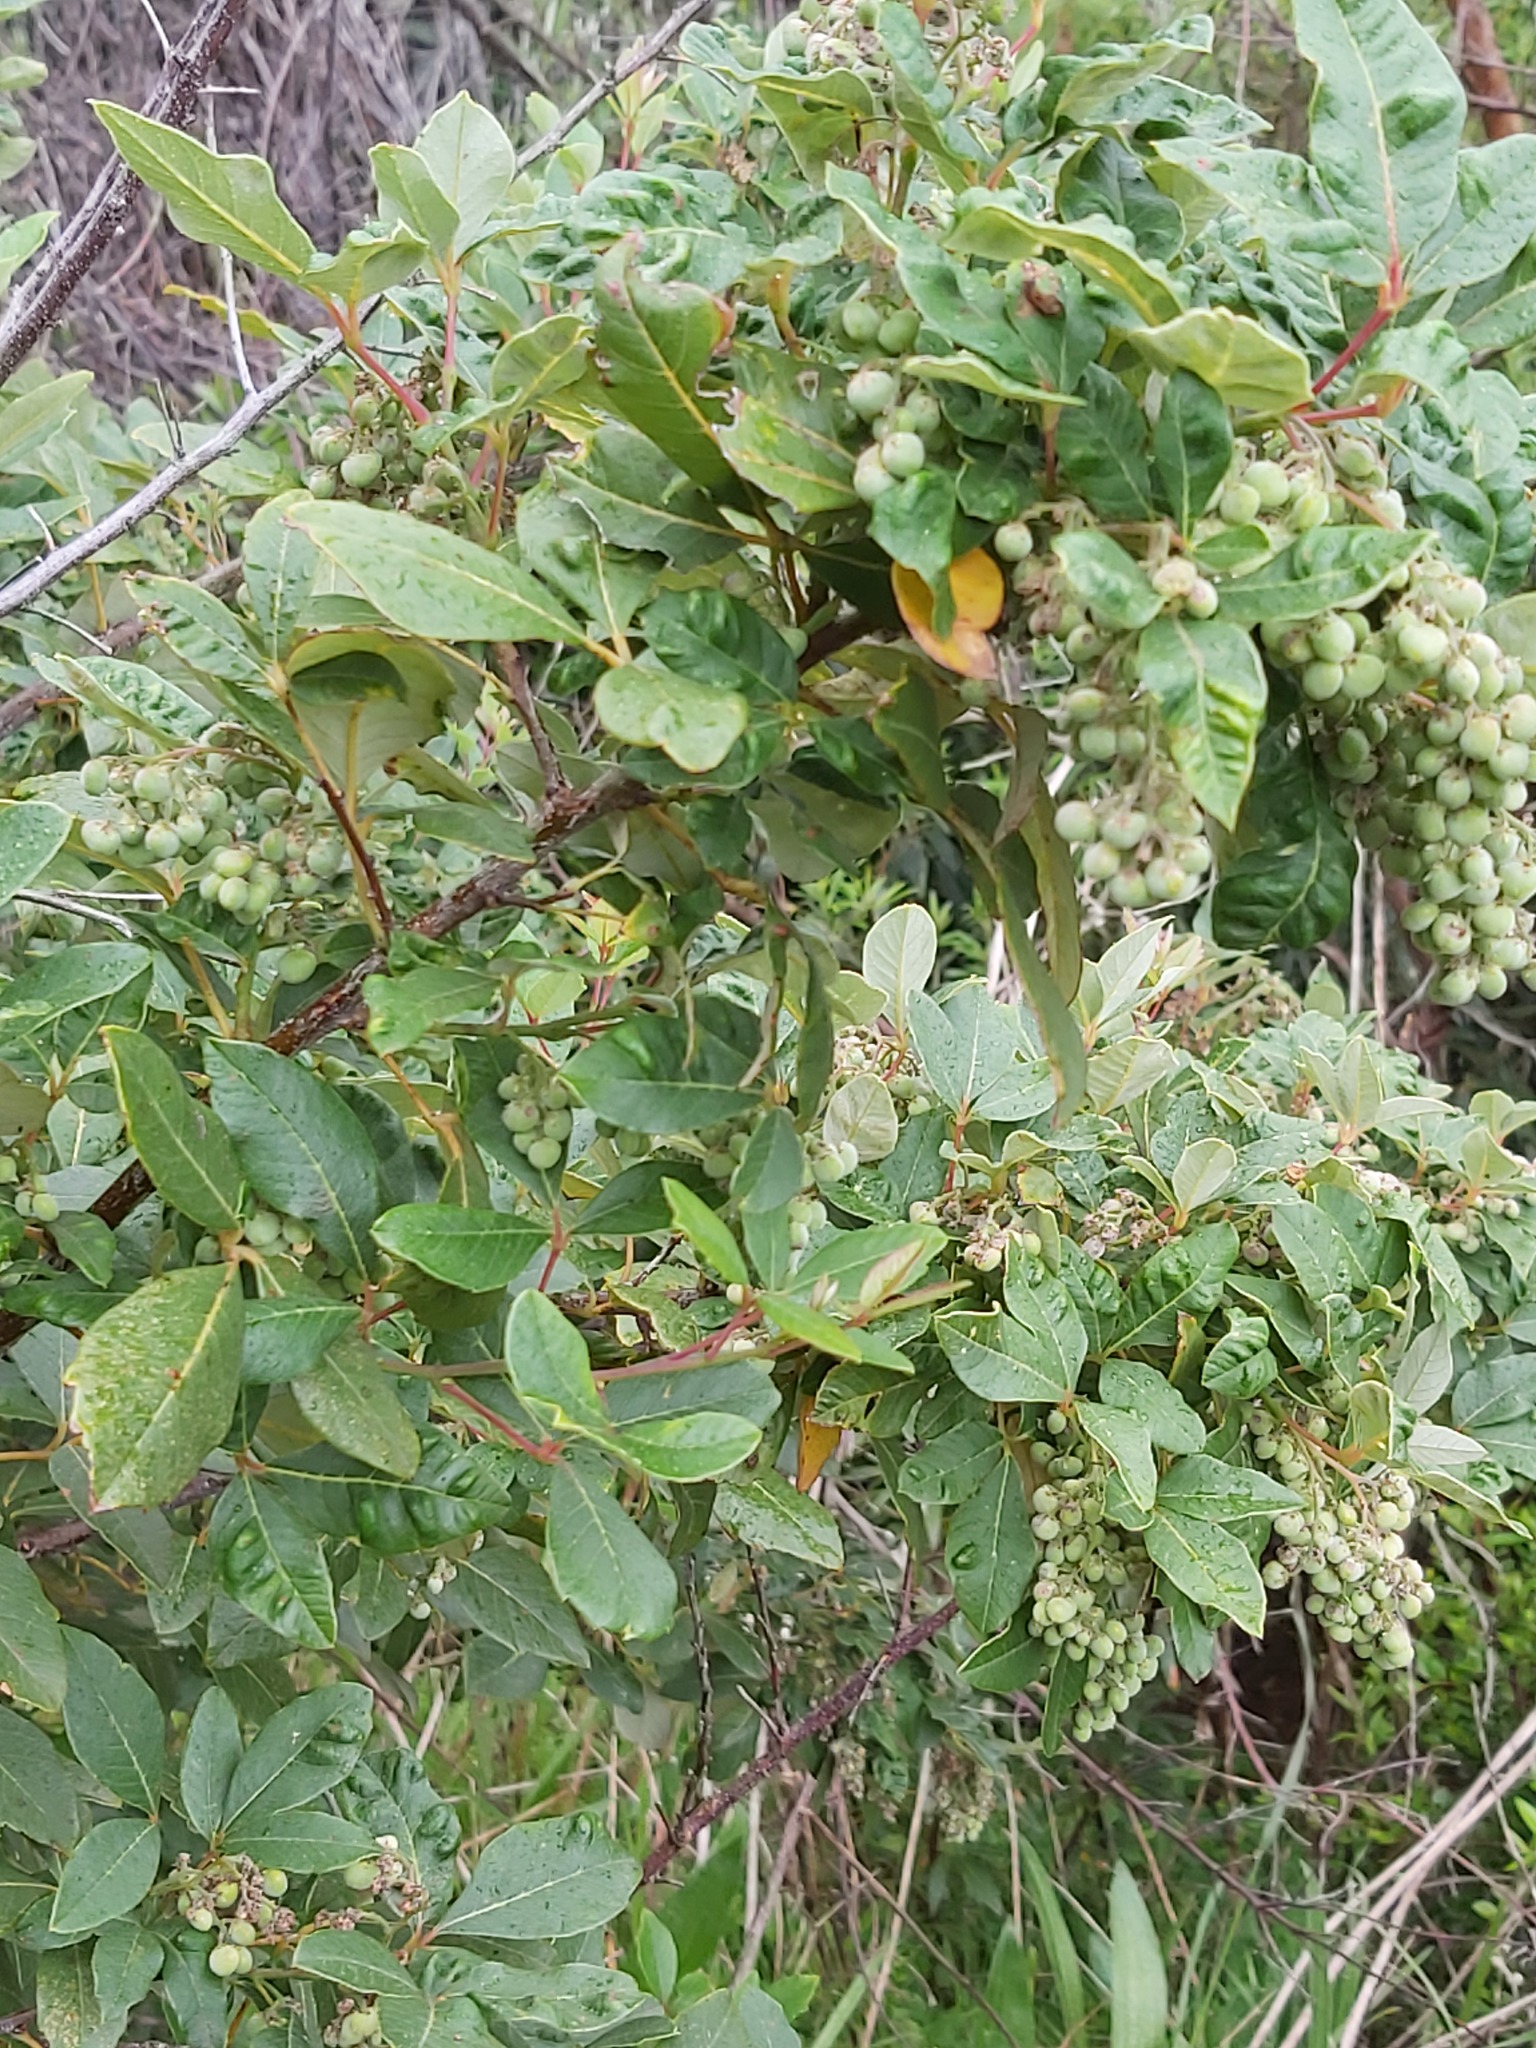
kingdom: Plantae
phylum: Tracheophyta
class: Magnoliopsida
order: Sapindales
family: Anacardiaceae
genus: Searsia
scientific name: Searsia tomentosa
